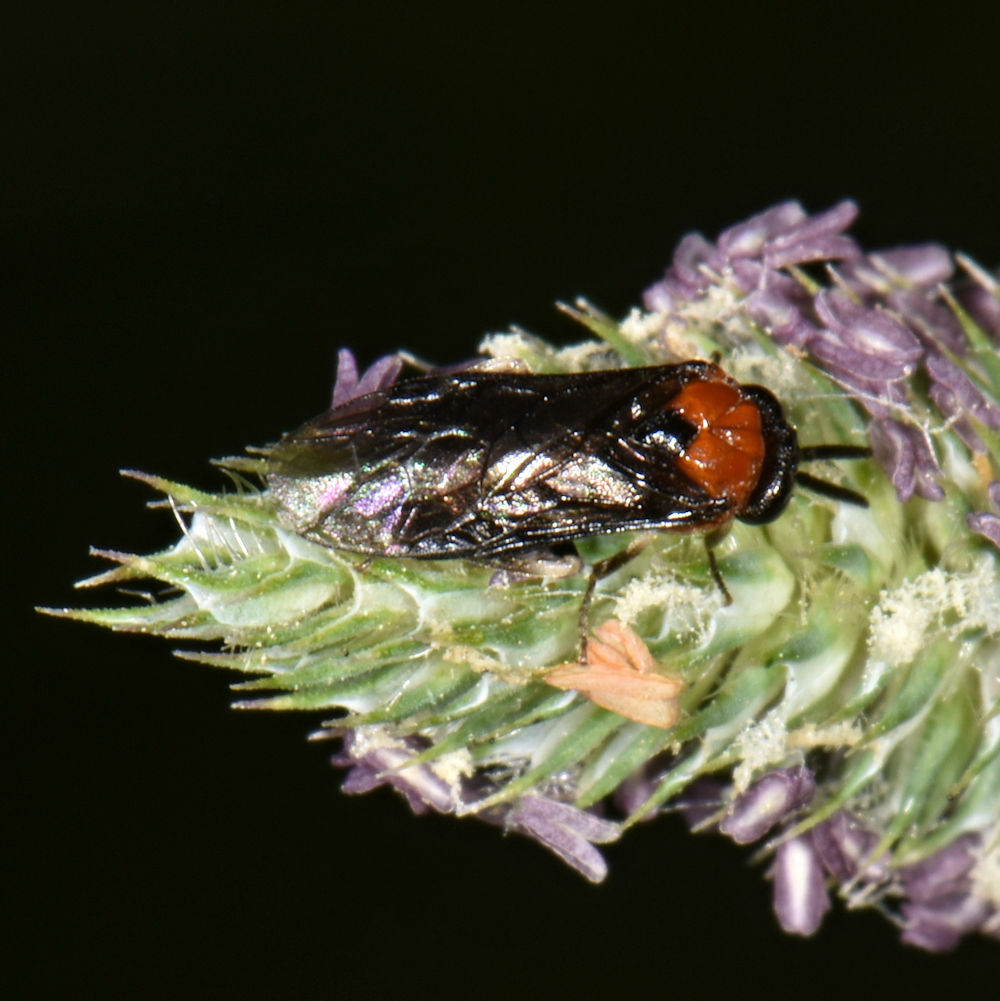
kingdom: Animalia
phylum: Arthropoda
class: Insecta
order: Hymenoptera
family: Tenthredinidae
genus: Eutomostethus
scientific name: Eutomostethus ephippium
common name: Tenthredid wasp
